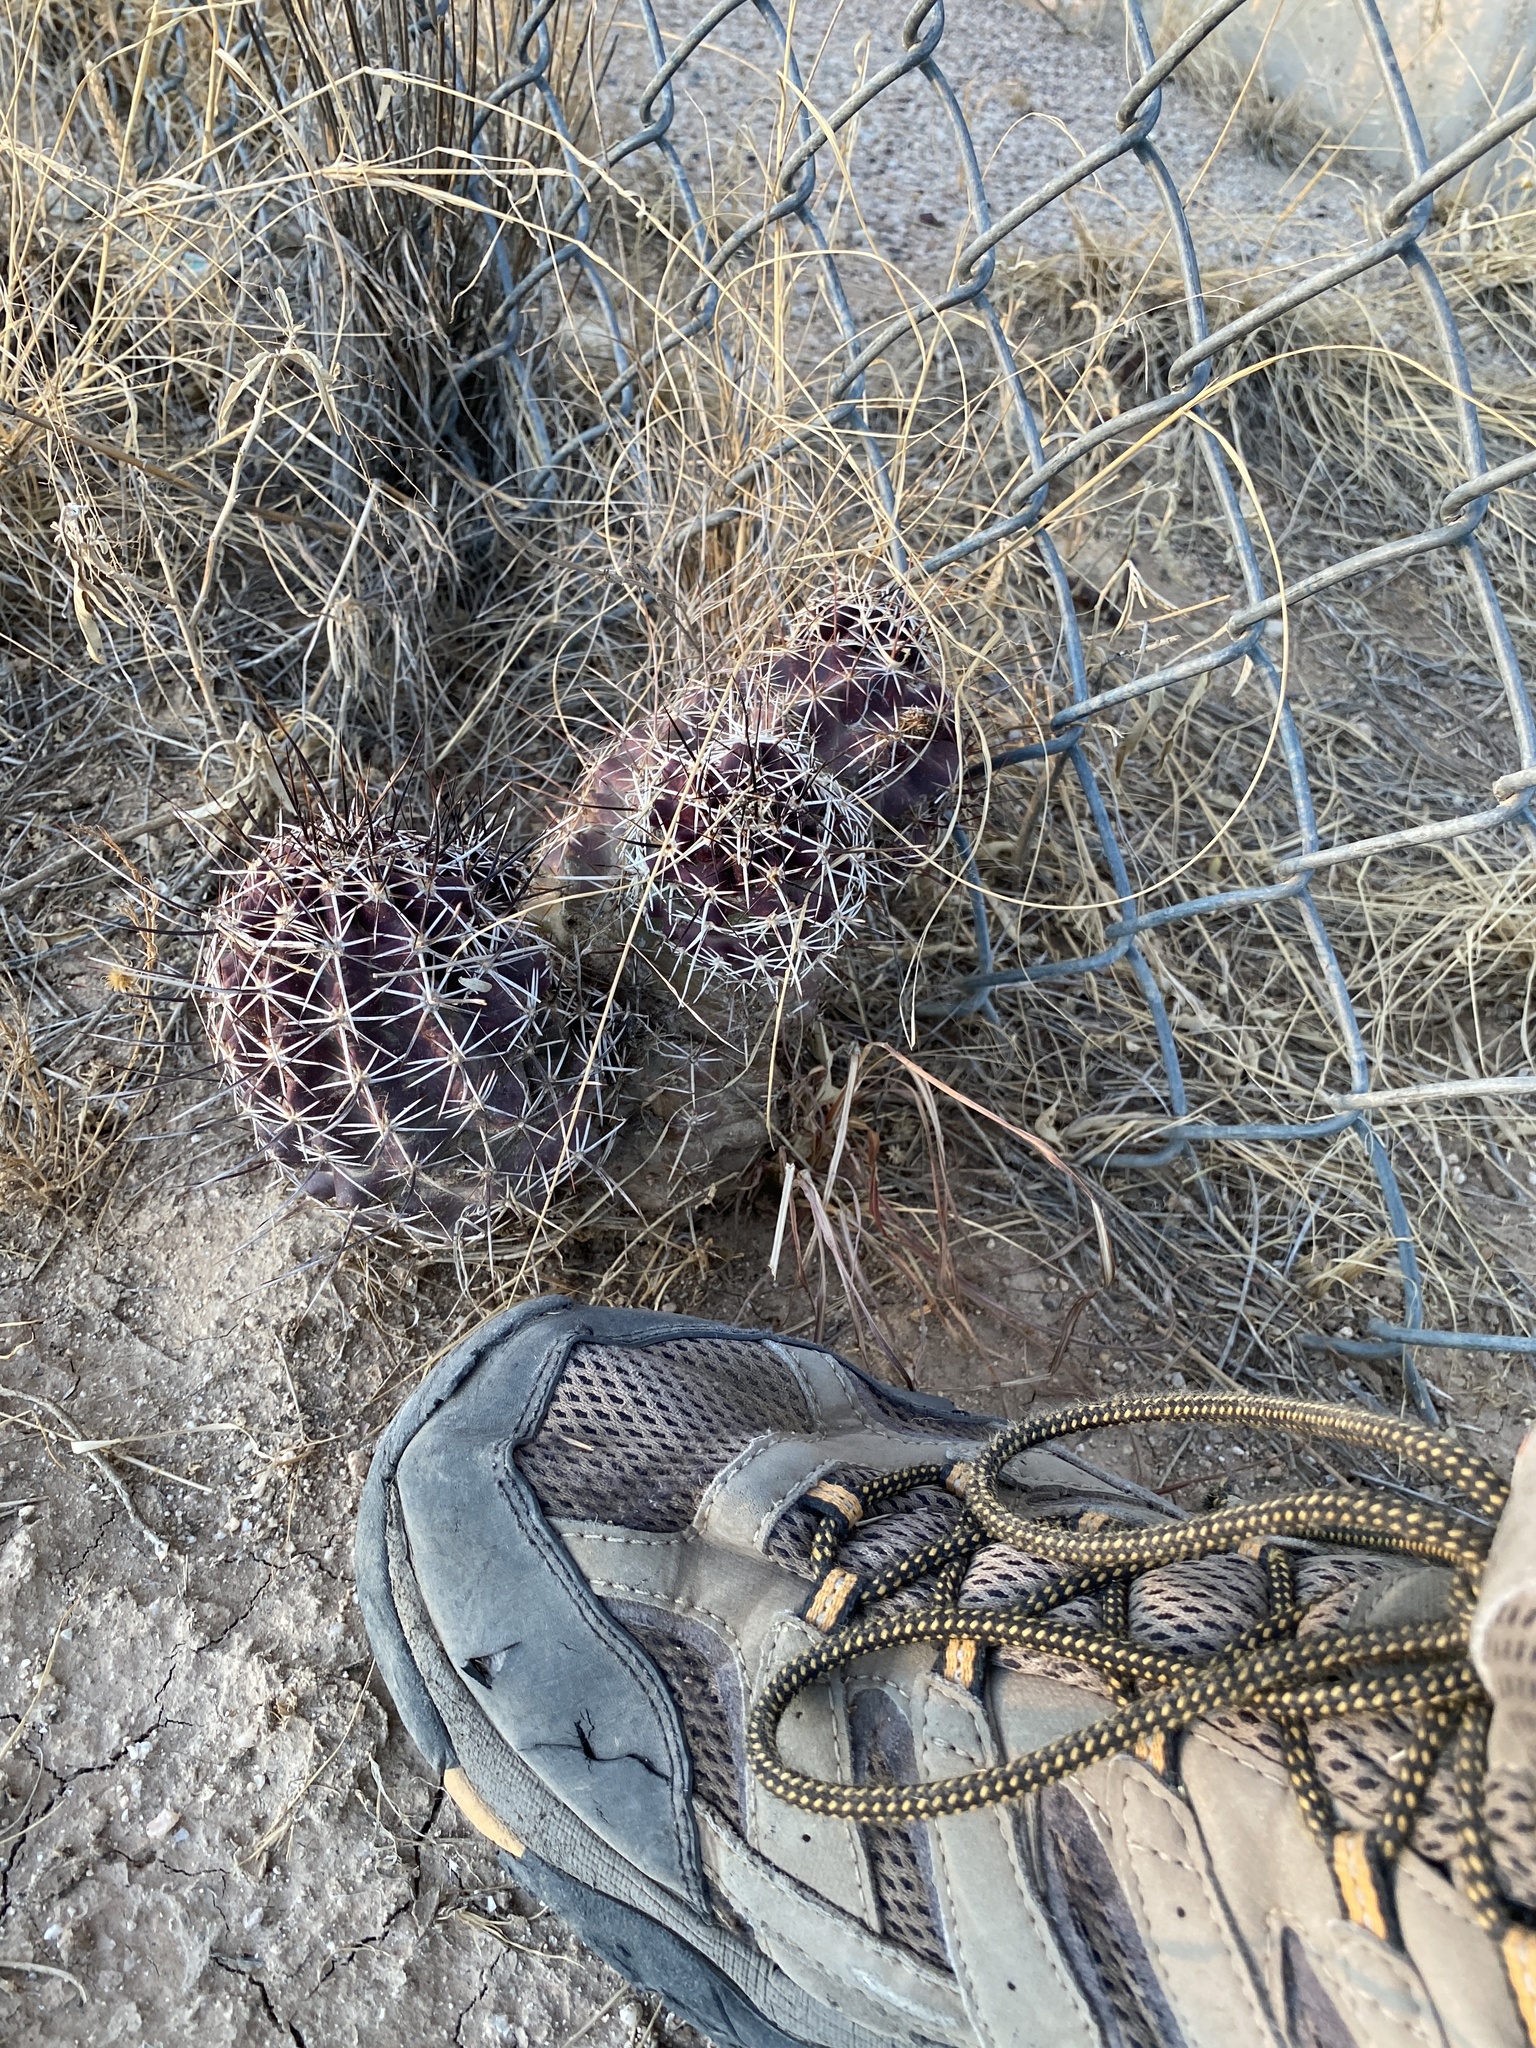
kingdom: Plantae
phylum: Tracheophyta
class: Magnoliopsida
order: Caryophyllales
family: Cactaceae
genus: Echinocereus
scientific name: Echinocereus fendleri
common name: Fendler's hedgehog cactus
